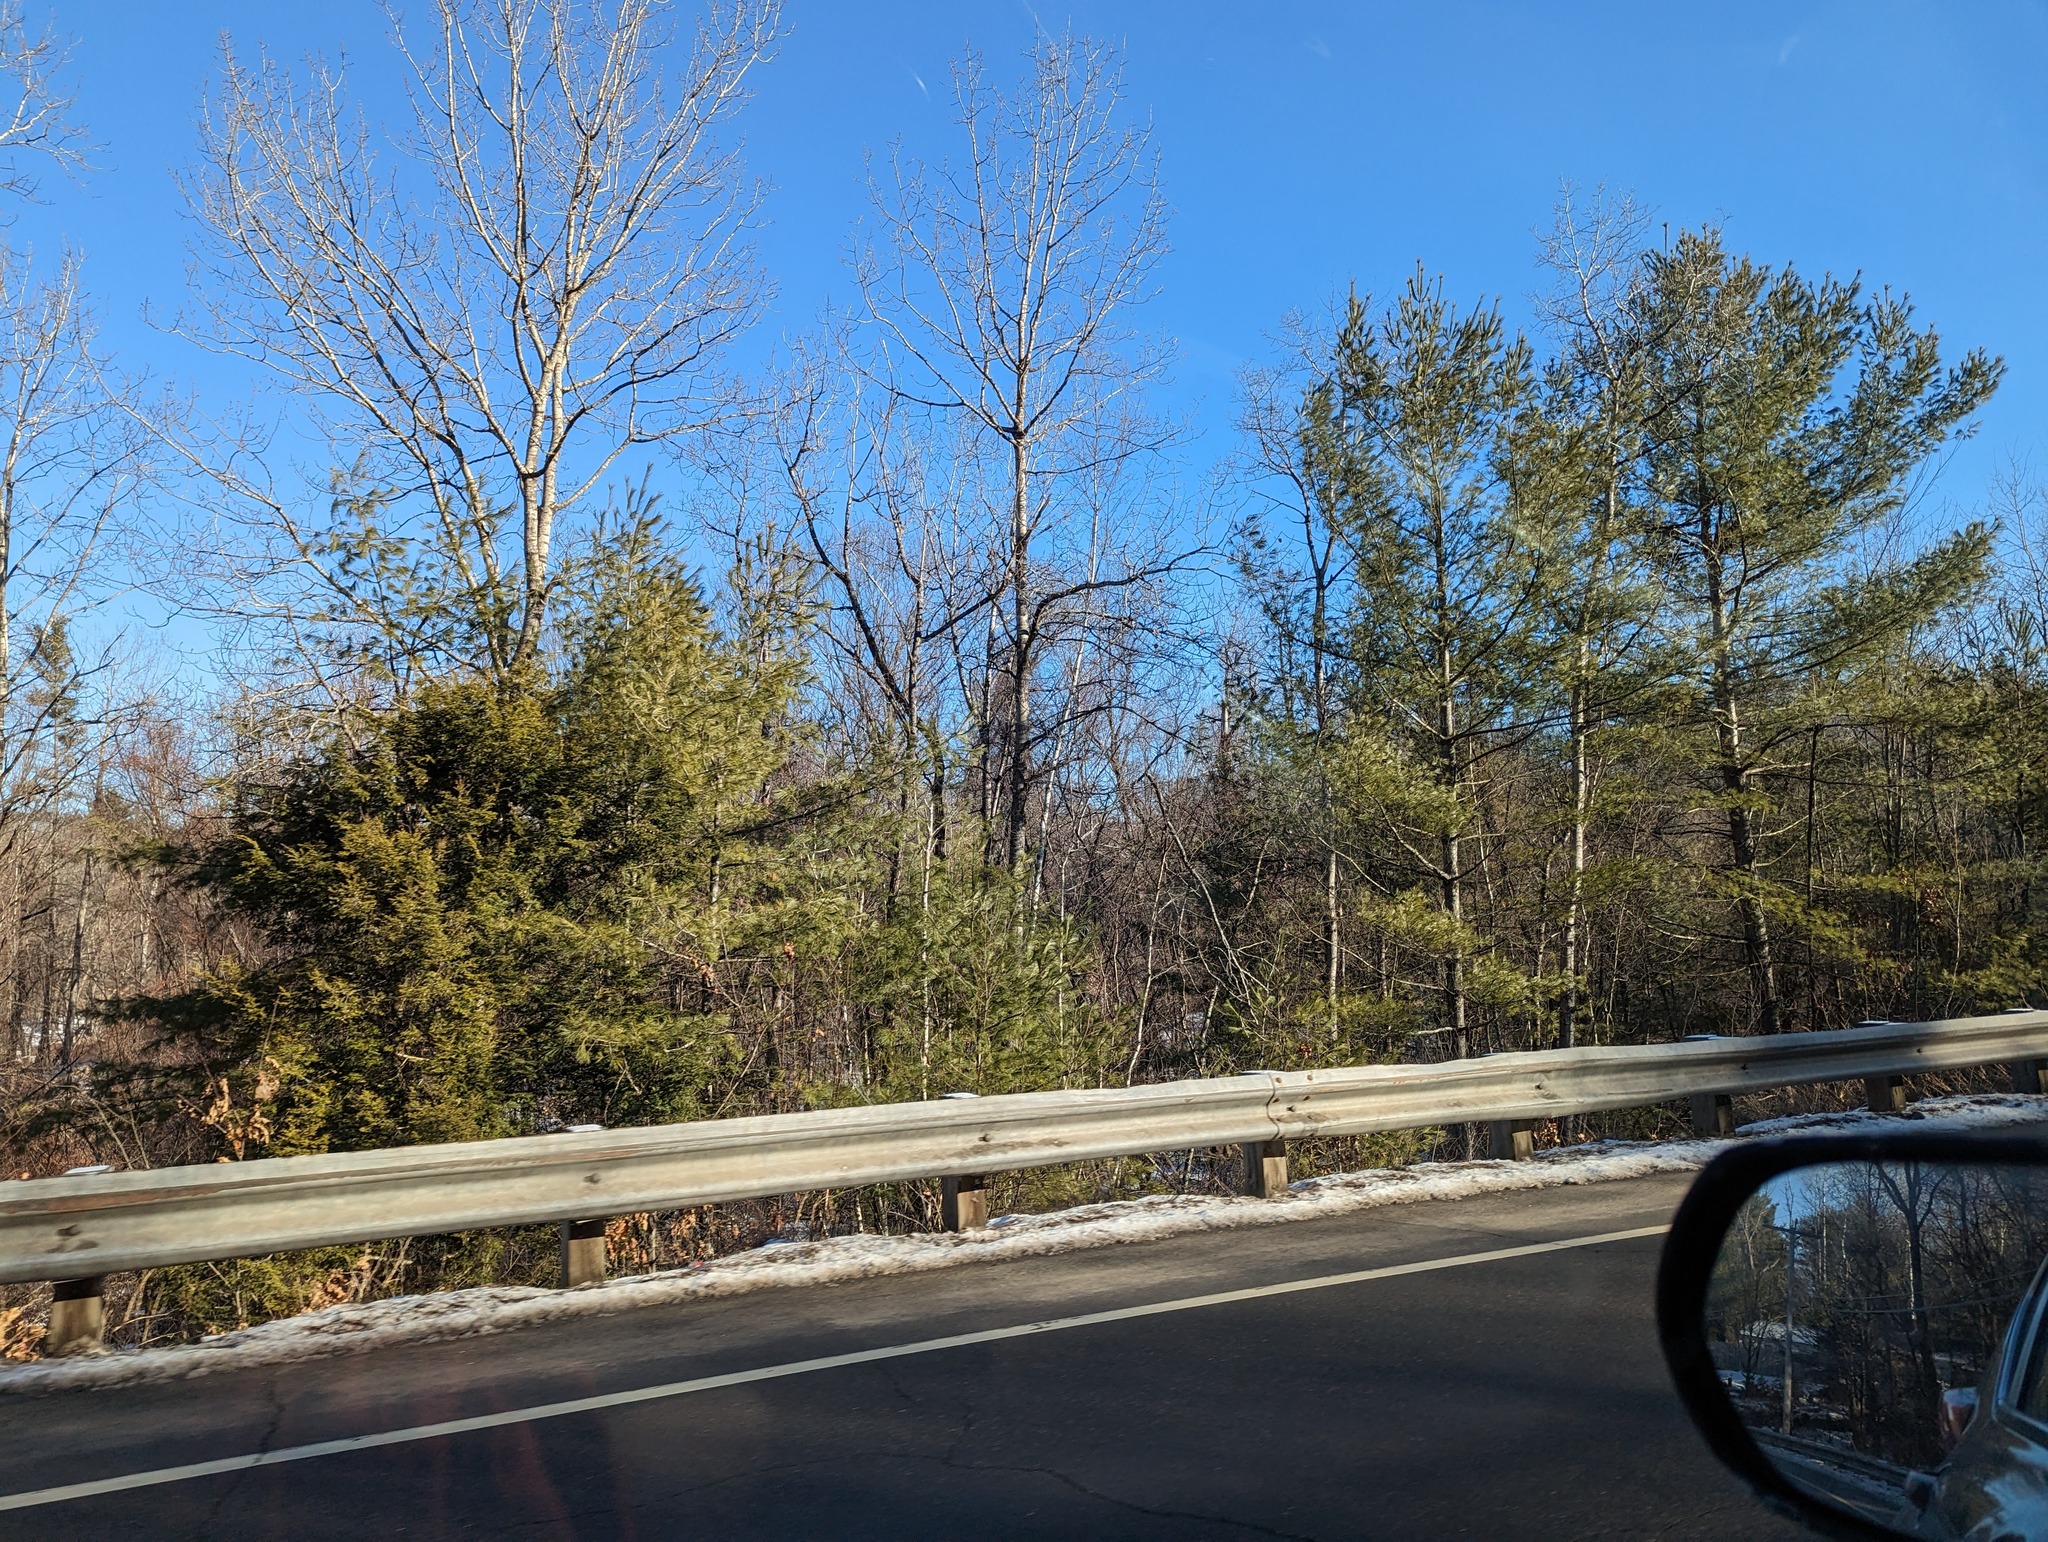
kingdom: Plantae
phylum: Tracheophyta
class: Pinopsida
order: Pinales
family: Pinaceae
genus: Pinus
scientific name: Pinus strobus
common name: Weymouth pine
